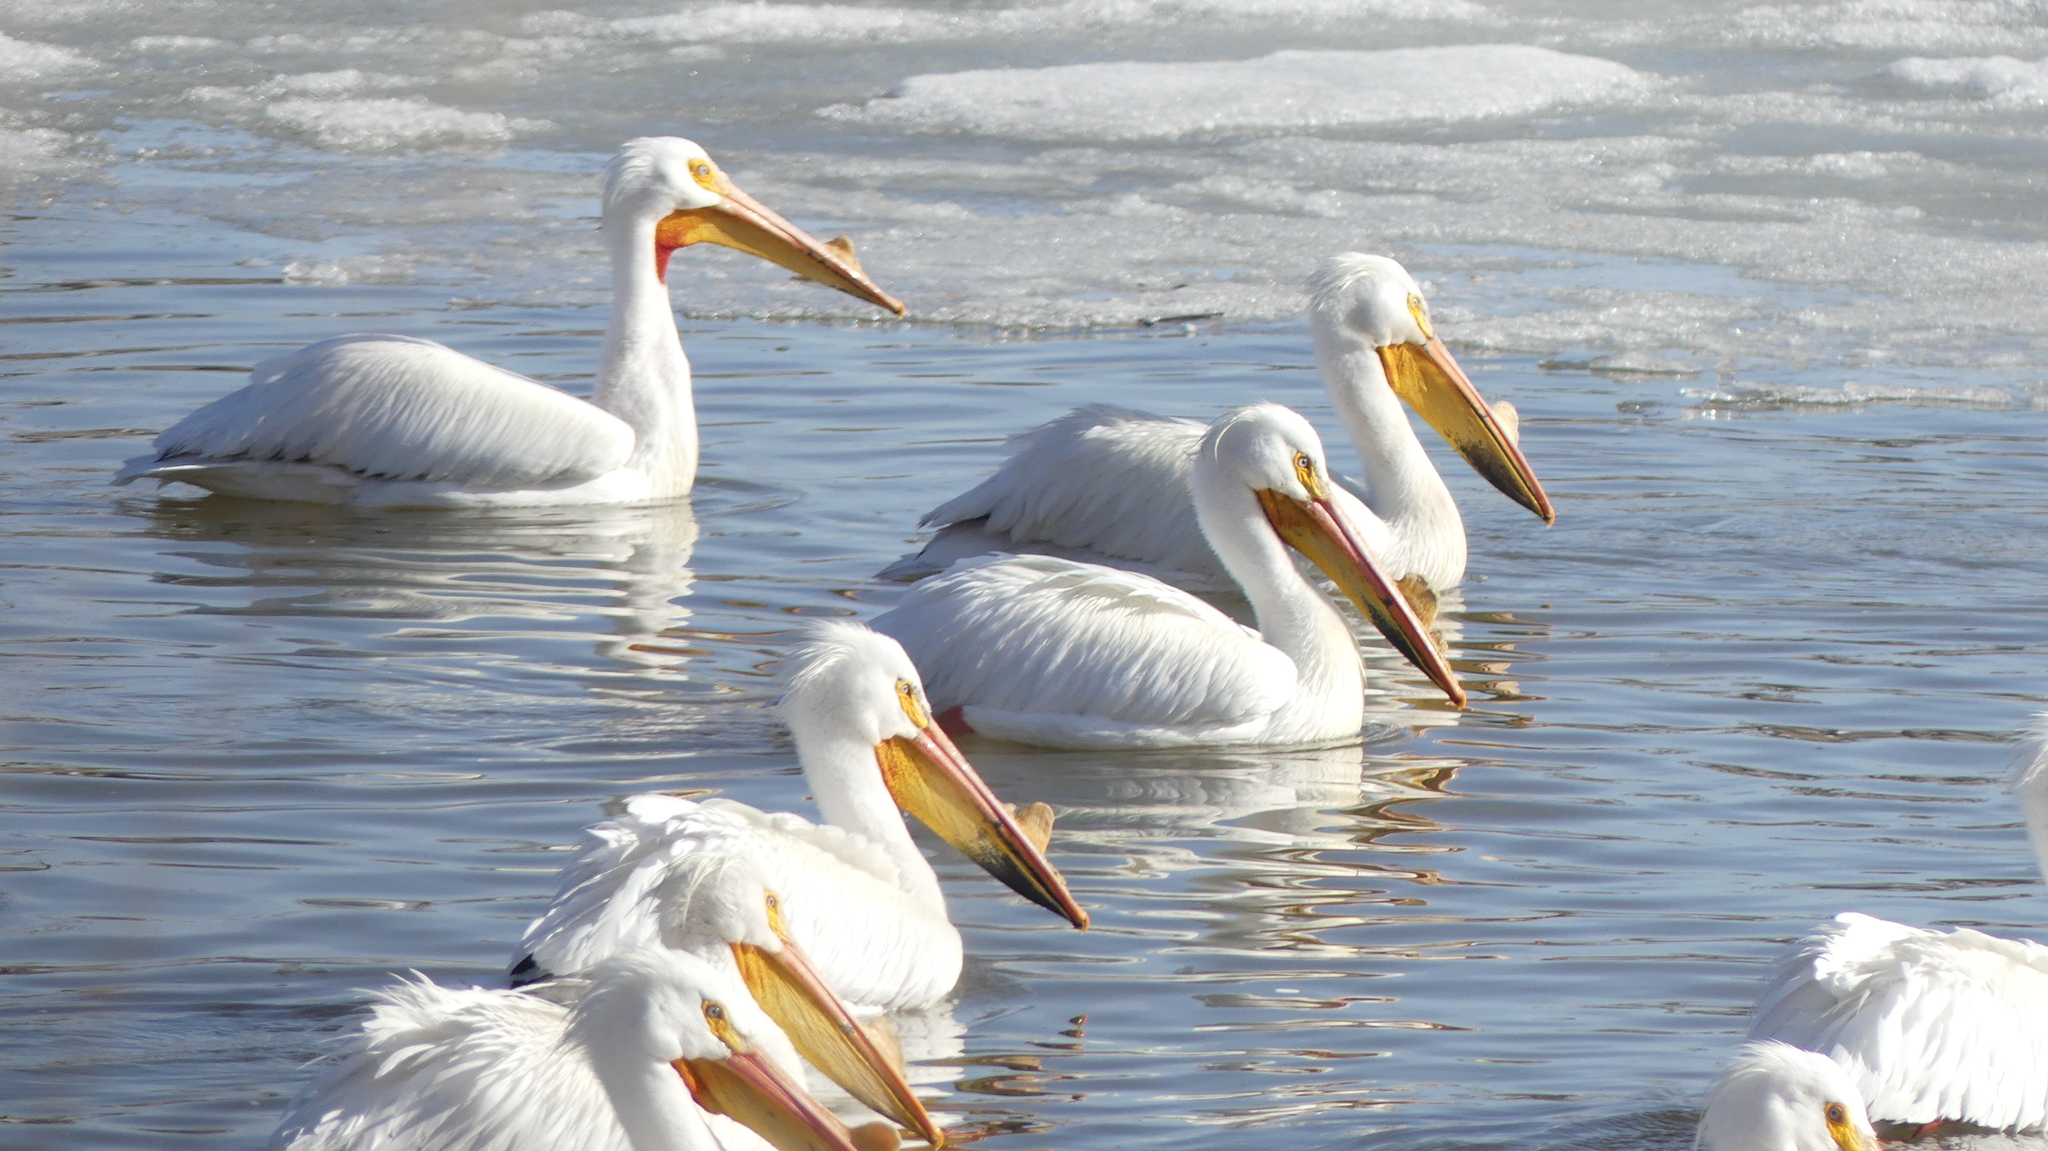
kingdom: Animalia
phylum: Chordata
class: Aves
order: Pelecaniformes
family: Pelecanidae
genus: Pelecanus
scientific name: Pelecanus erythrorhynchos
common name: American white pelican
